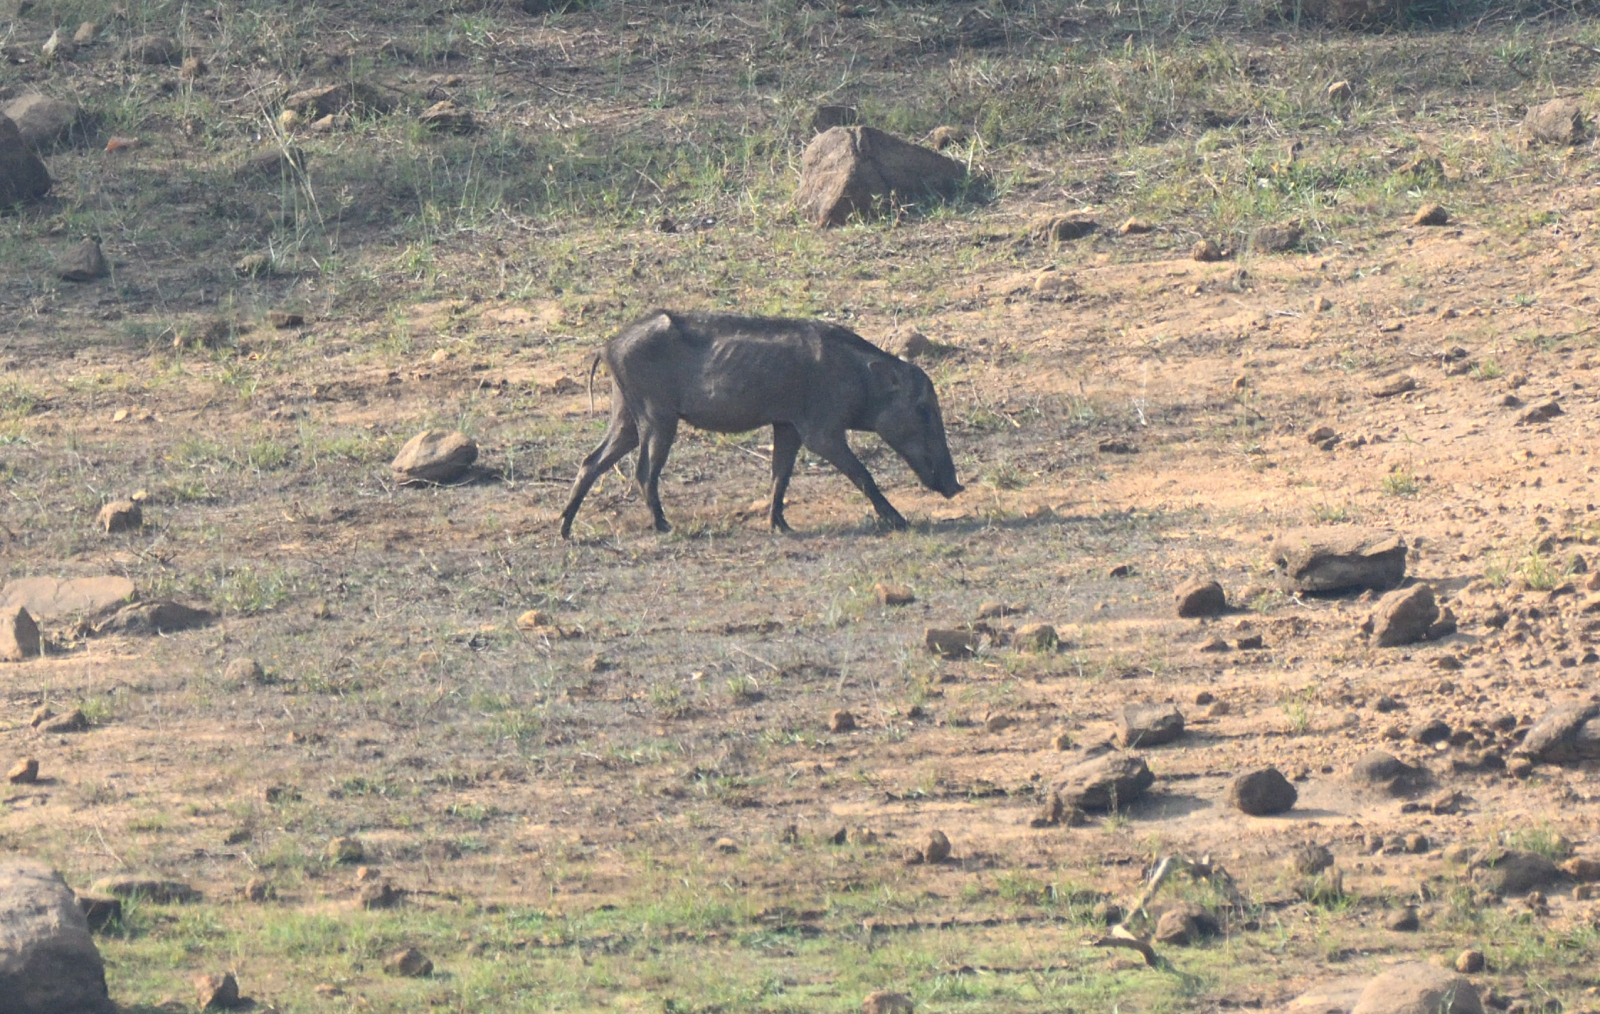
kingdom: Animalia
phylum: Chordata
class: Mammalia
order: Artiodactyla
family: Suidae
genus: Sus
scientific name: Sus scrofa
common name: Wild boar
